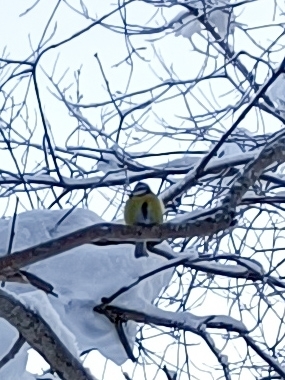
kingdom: Animalia
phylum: Chordata
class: Aves
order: Passeriformes
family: Paridae
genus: Cyanistes
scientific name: Cyanistes caeruleus
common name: Eurasian blue tit
